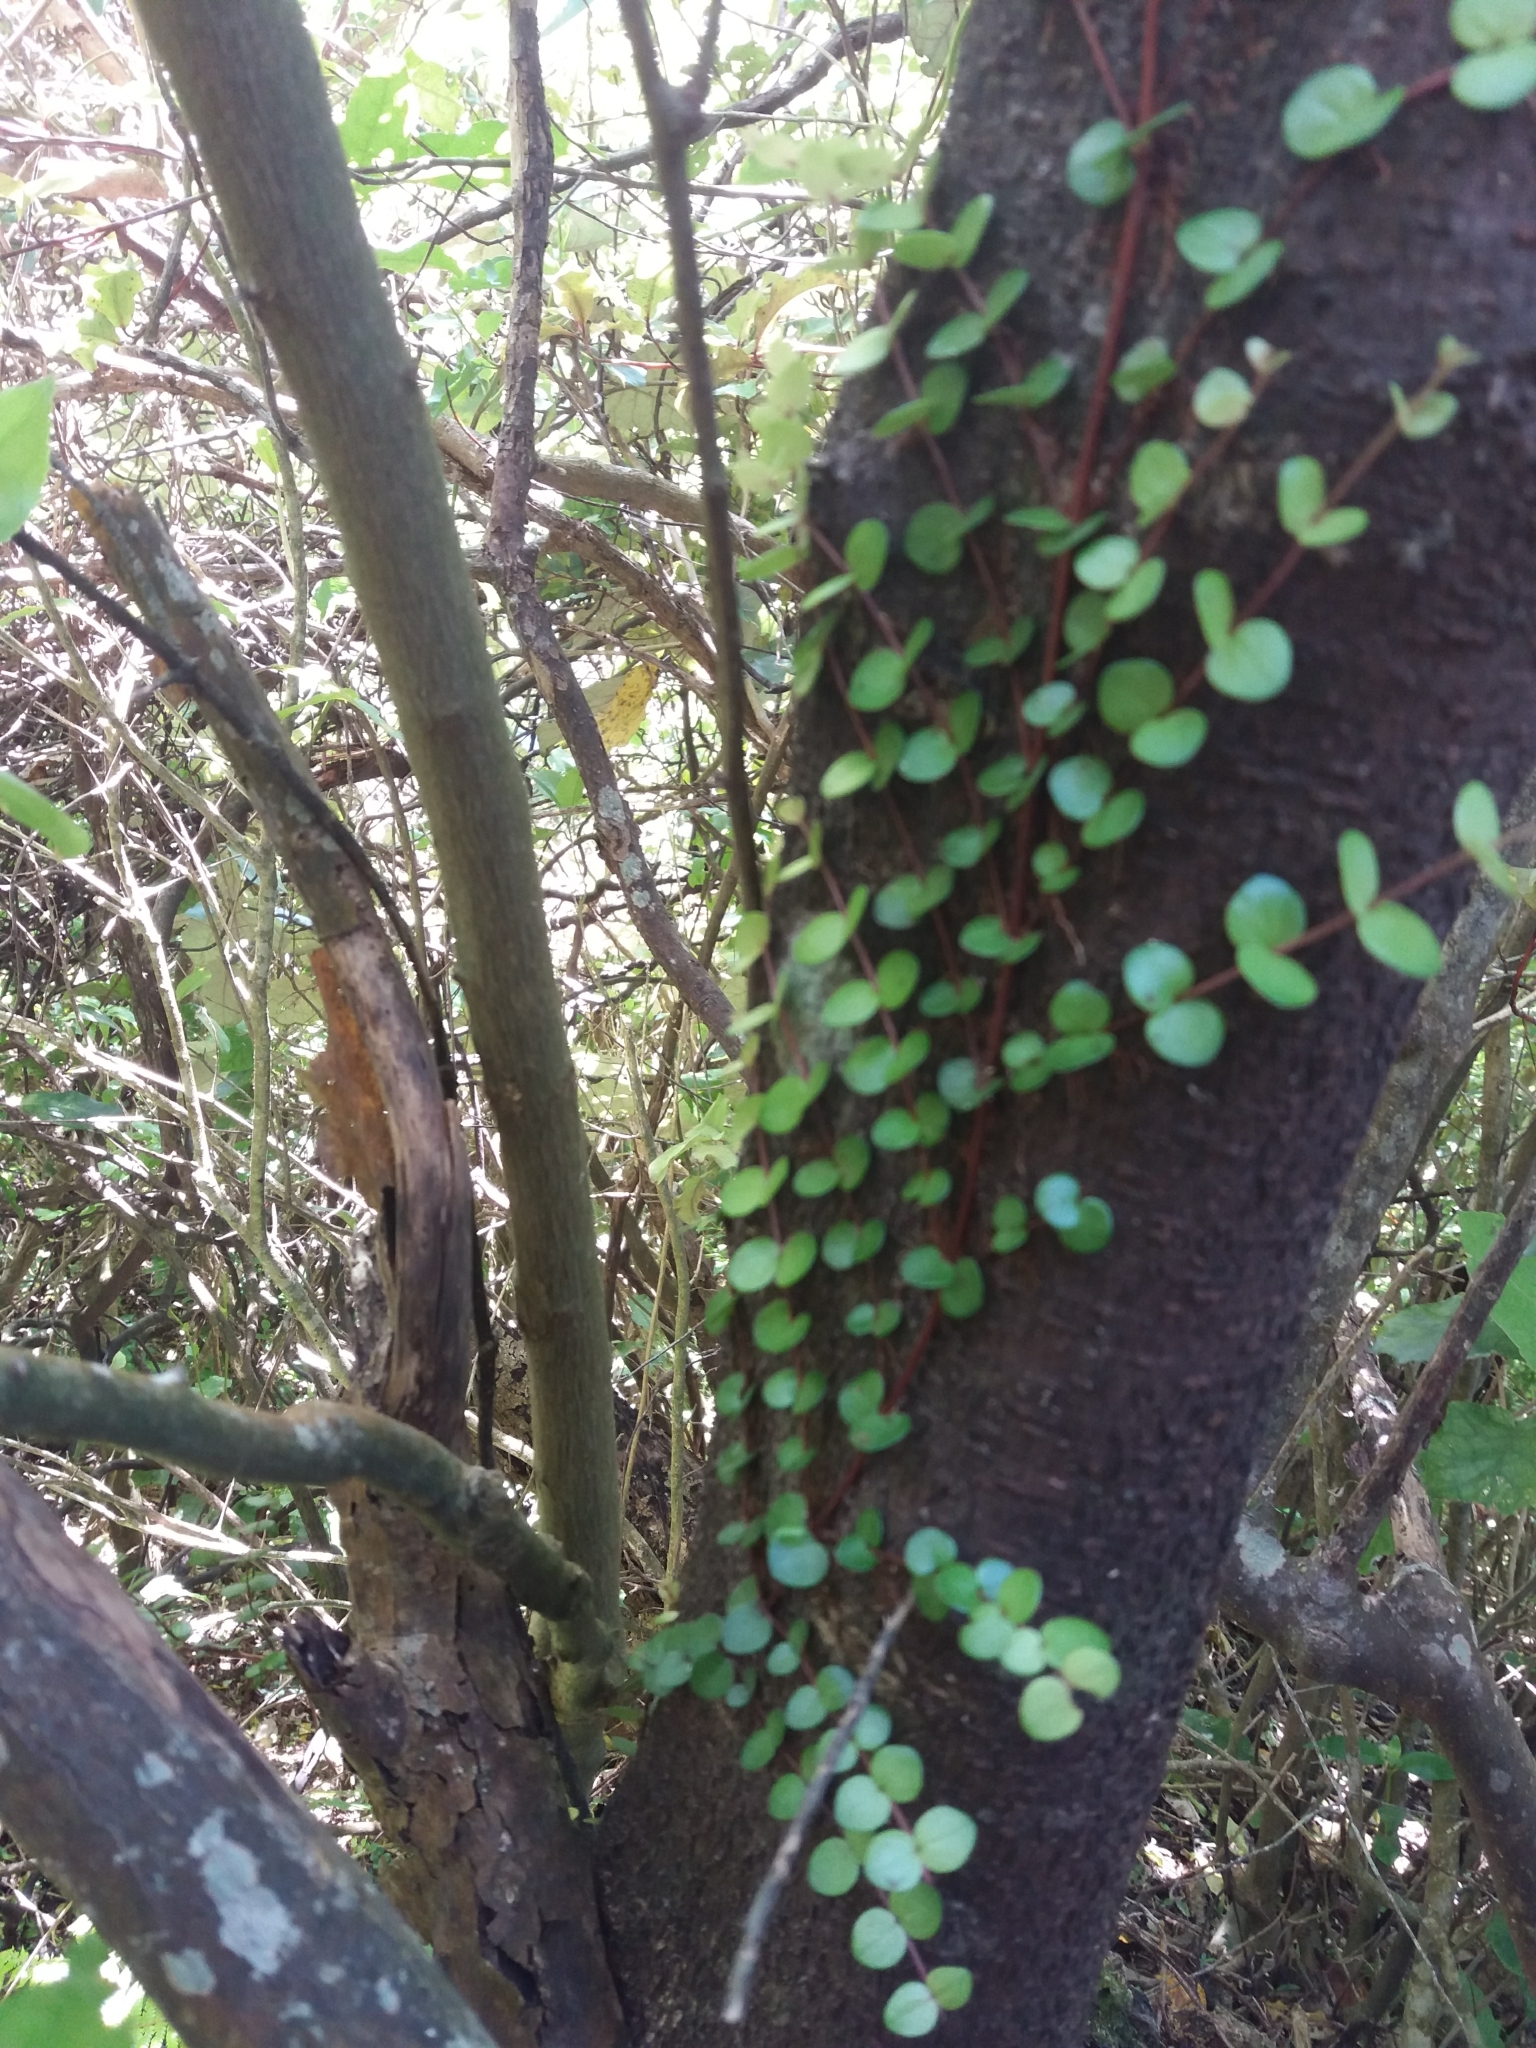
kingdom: Plantae
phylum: Tracheophyta
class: Magnoliopsida
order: Myrtales
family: Myrtaceae
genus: Metrosideros
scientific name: Metrosideros perforata
